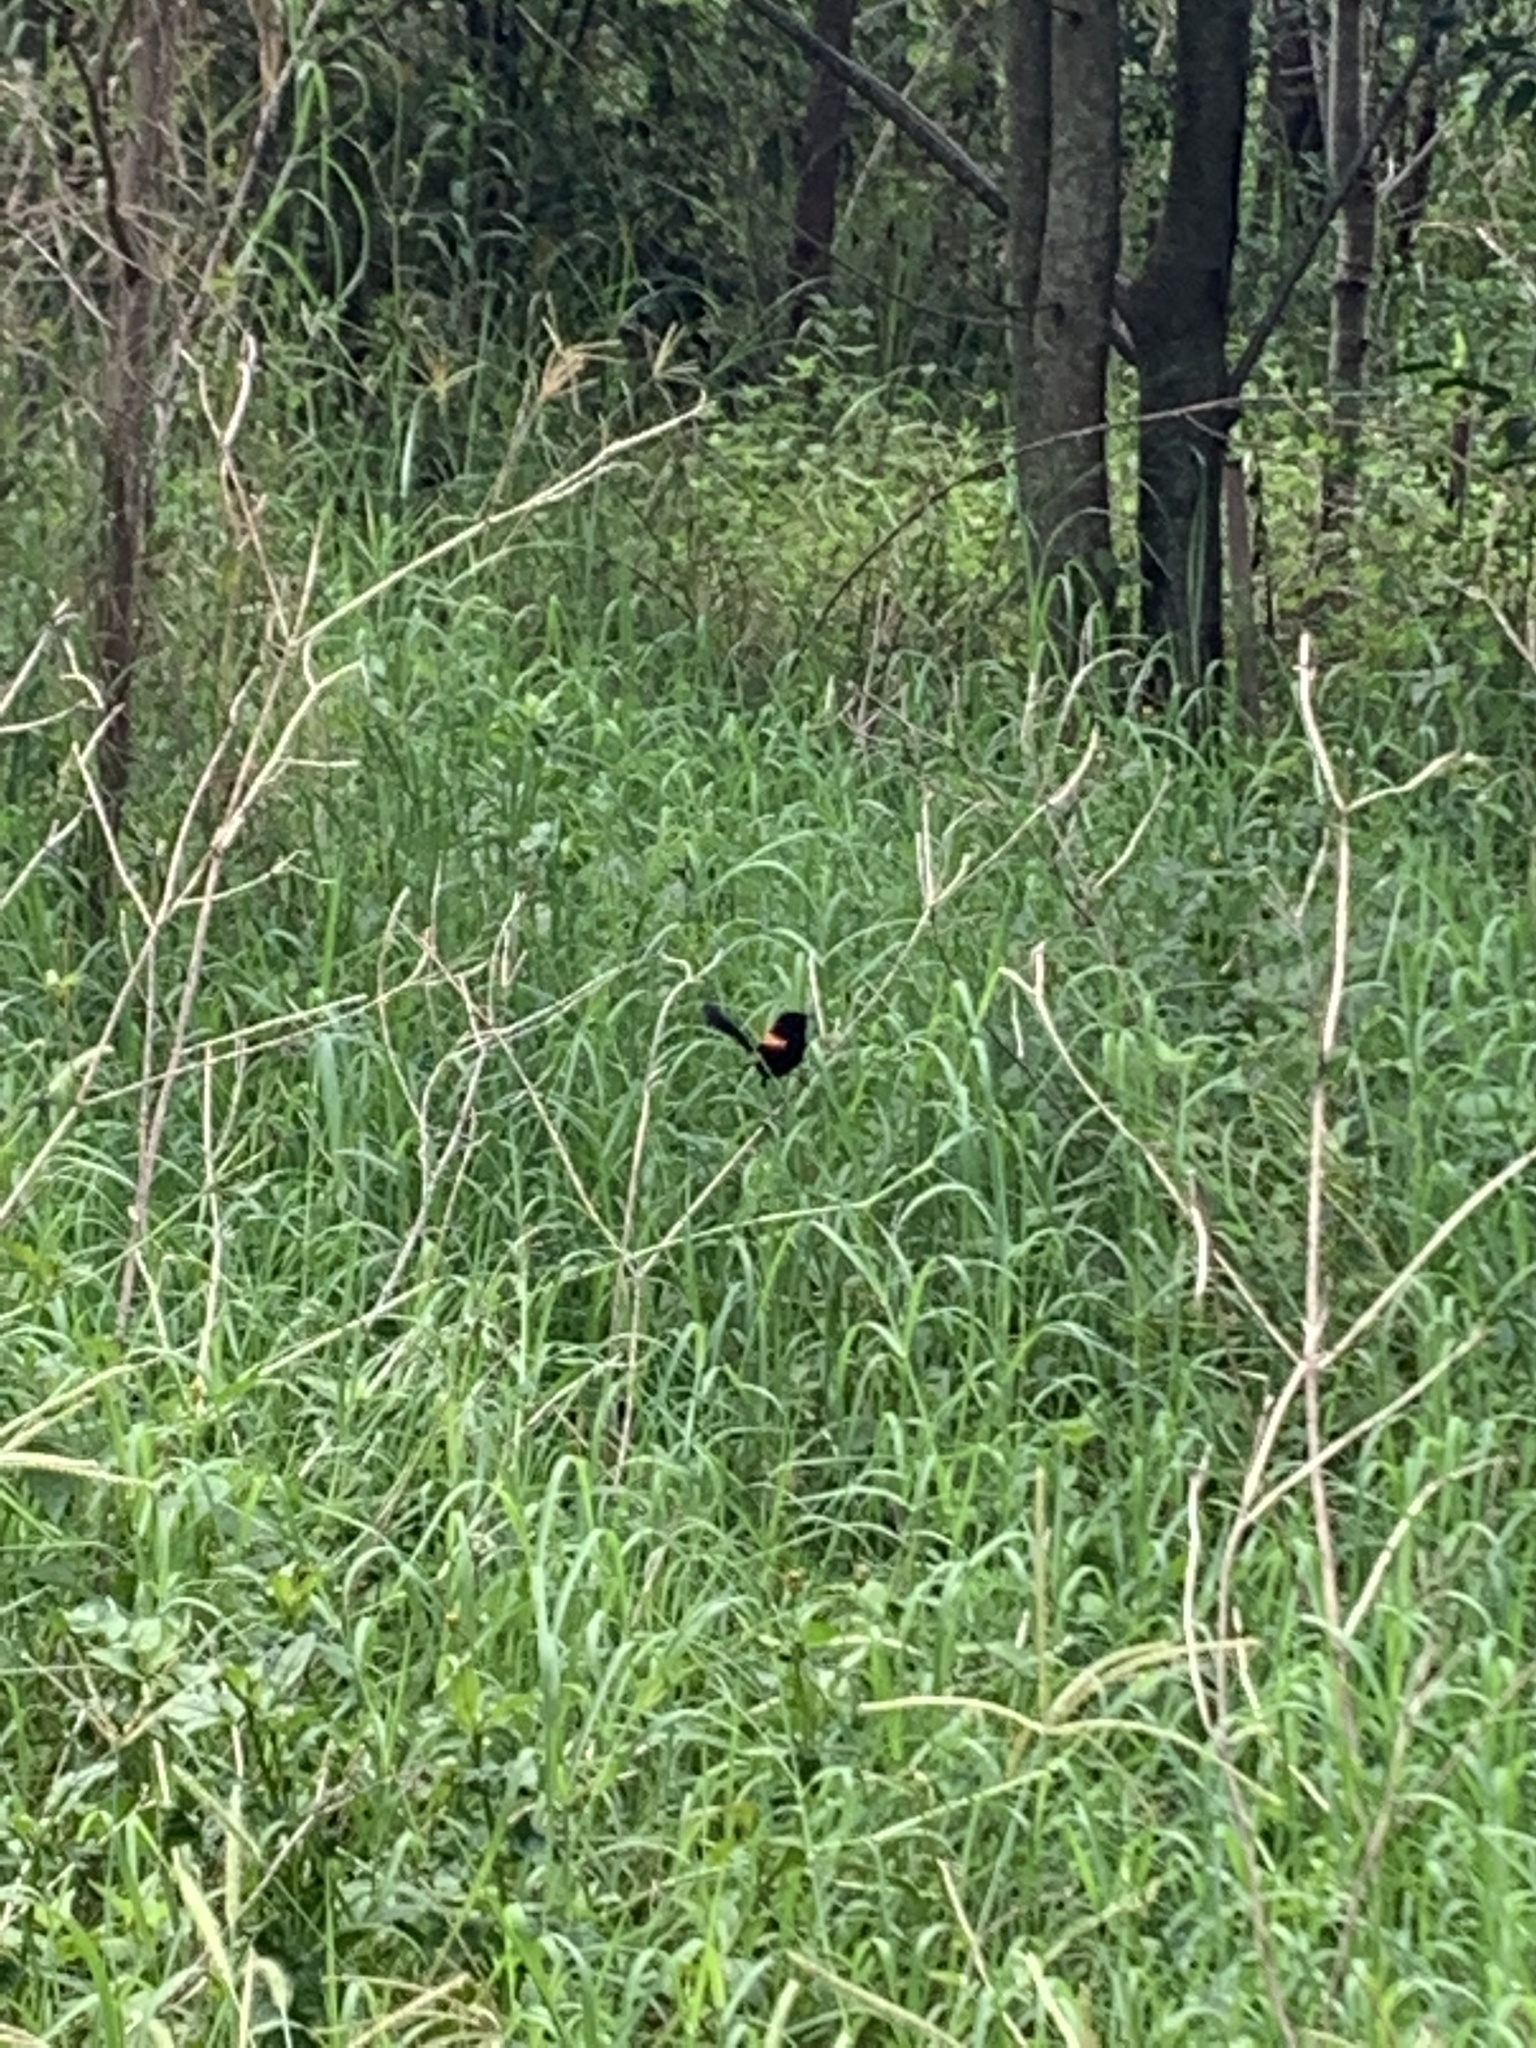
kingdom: Animalia
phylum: Chordata
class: Aves
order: Passeriformes
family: Maluridae
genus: Malurus
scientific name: Malurus melanocephalus
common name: Red-backed fairywren
